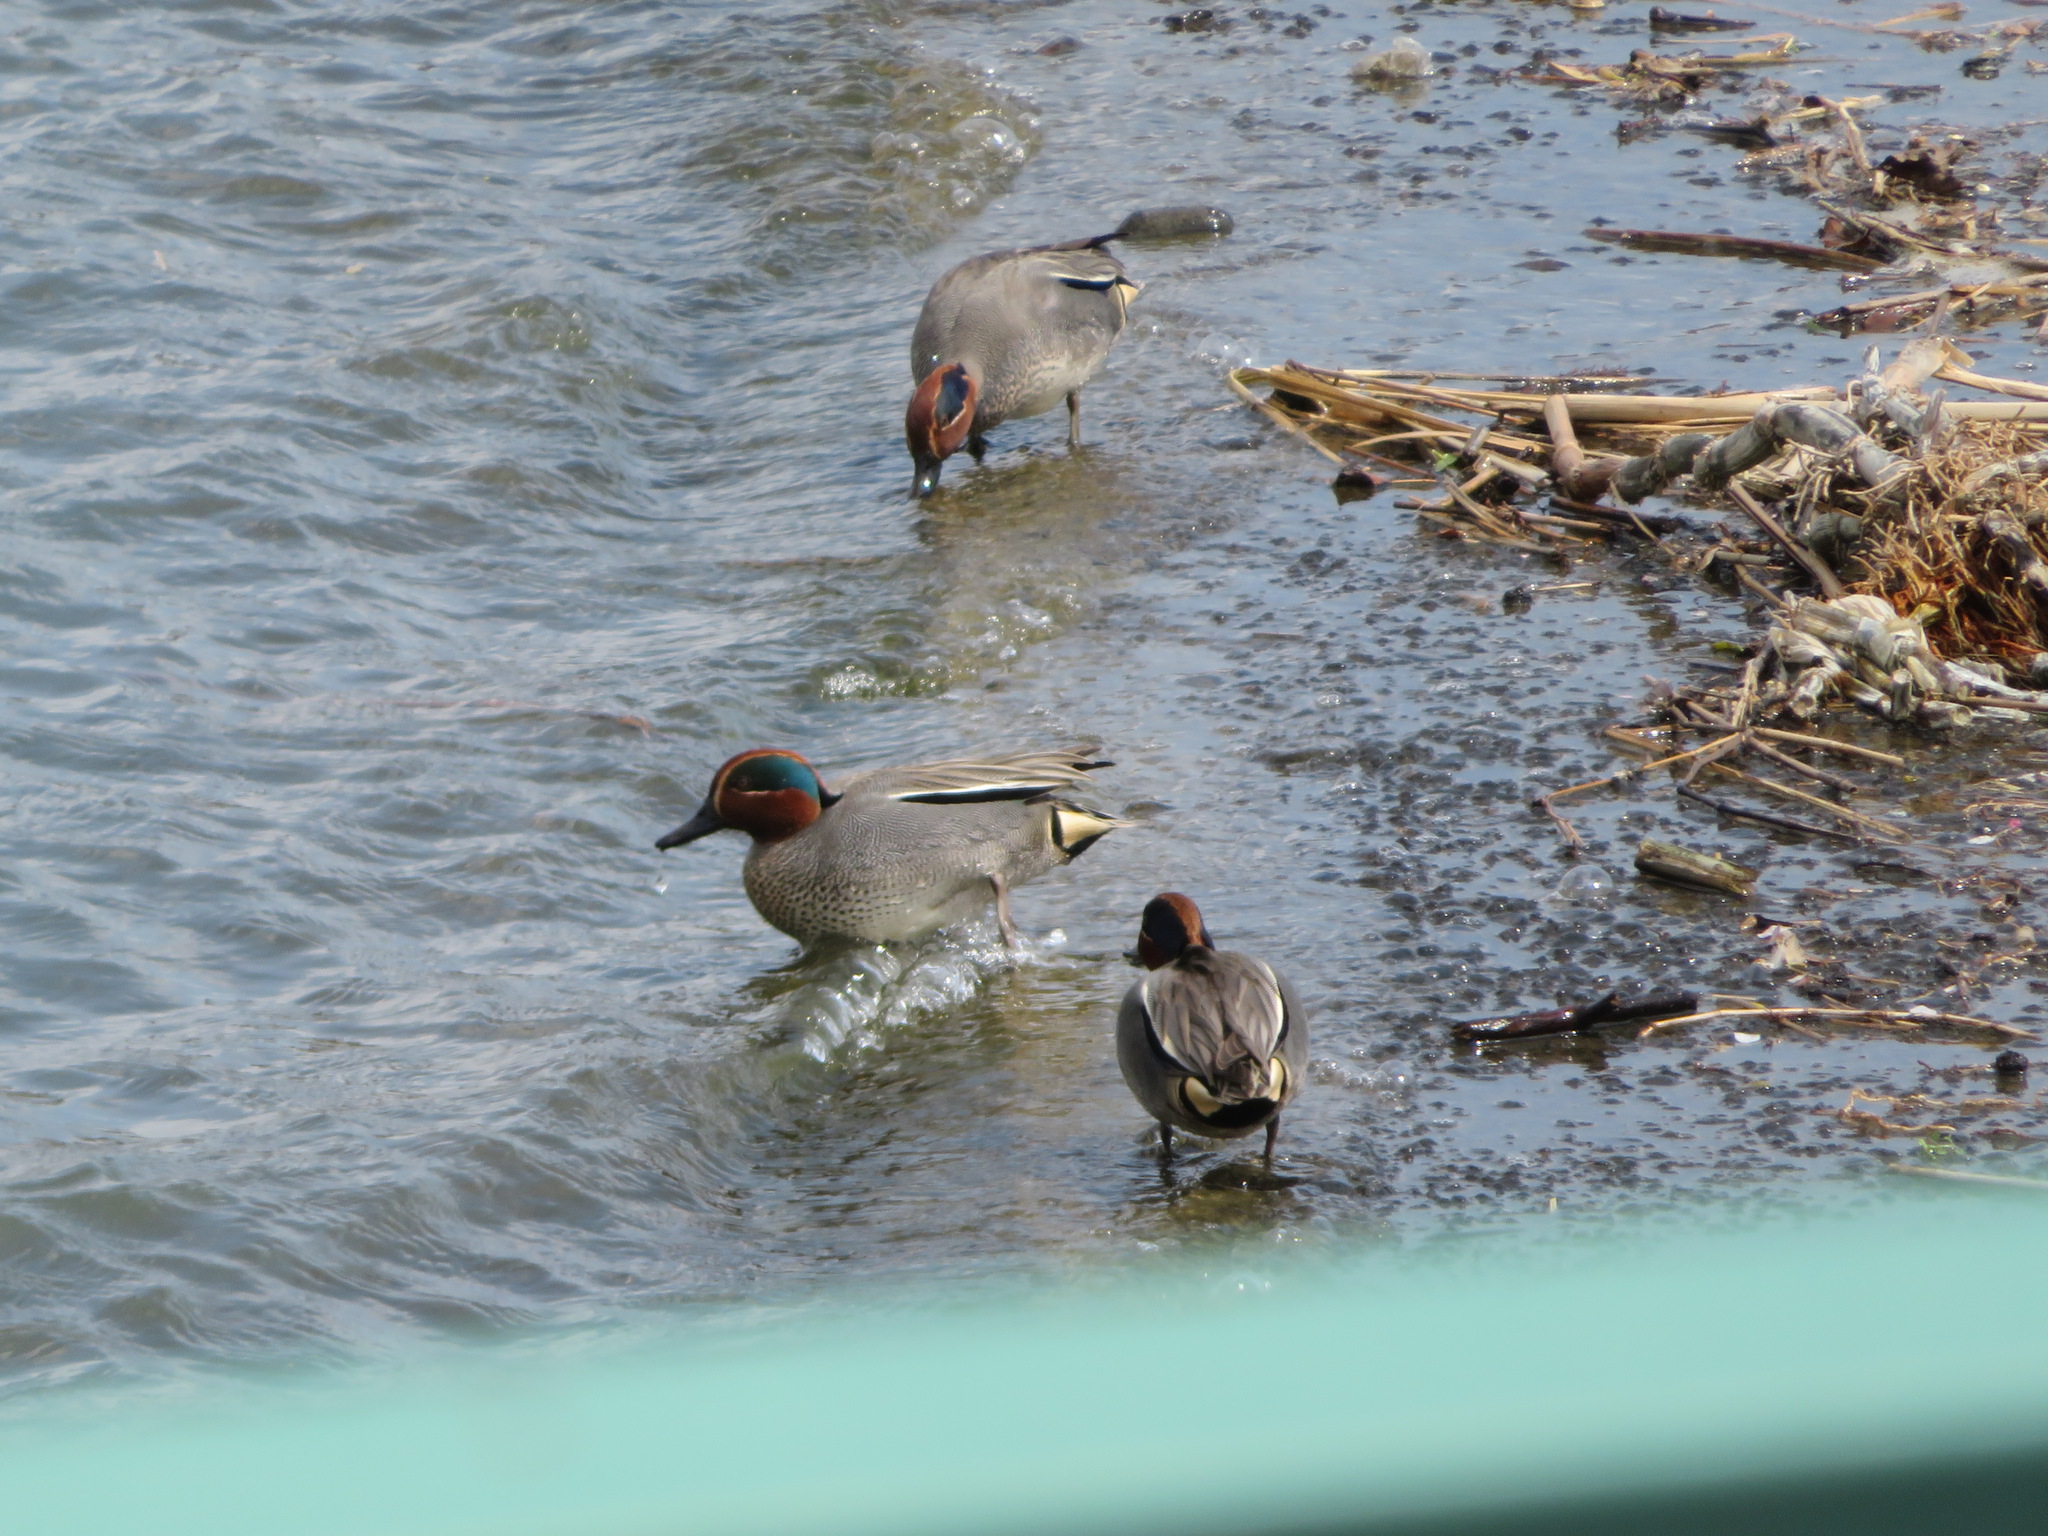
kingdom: Animalia
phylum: Chordata
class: Aves
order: Anseriformes
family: Anatidae
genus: Anas
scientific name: Anas crecca
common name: Eurasian teal
